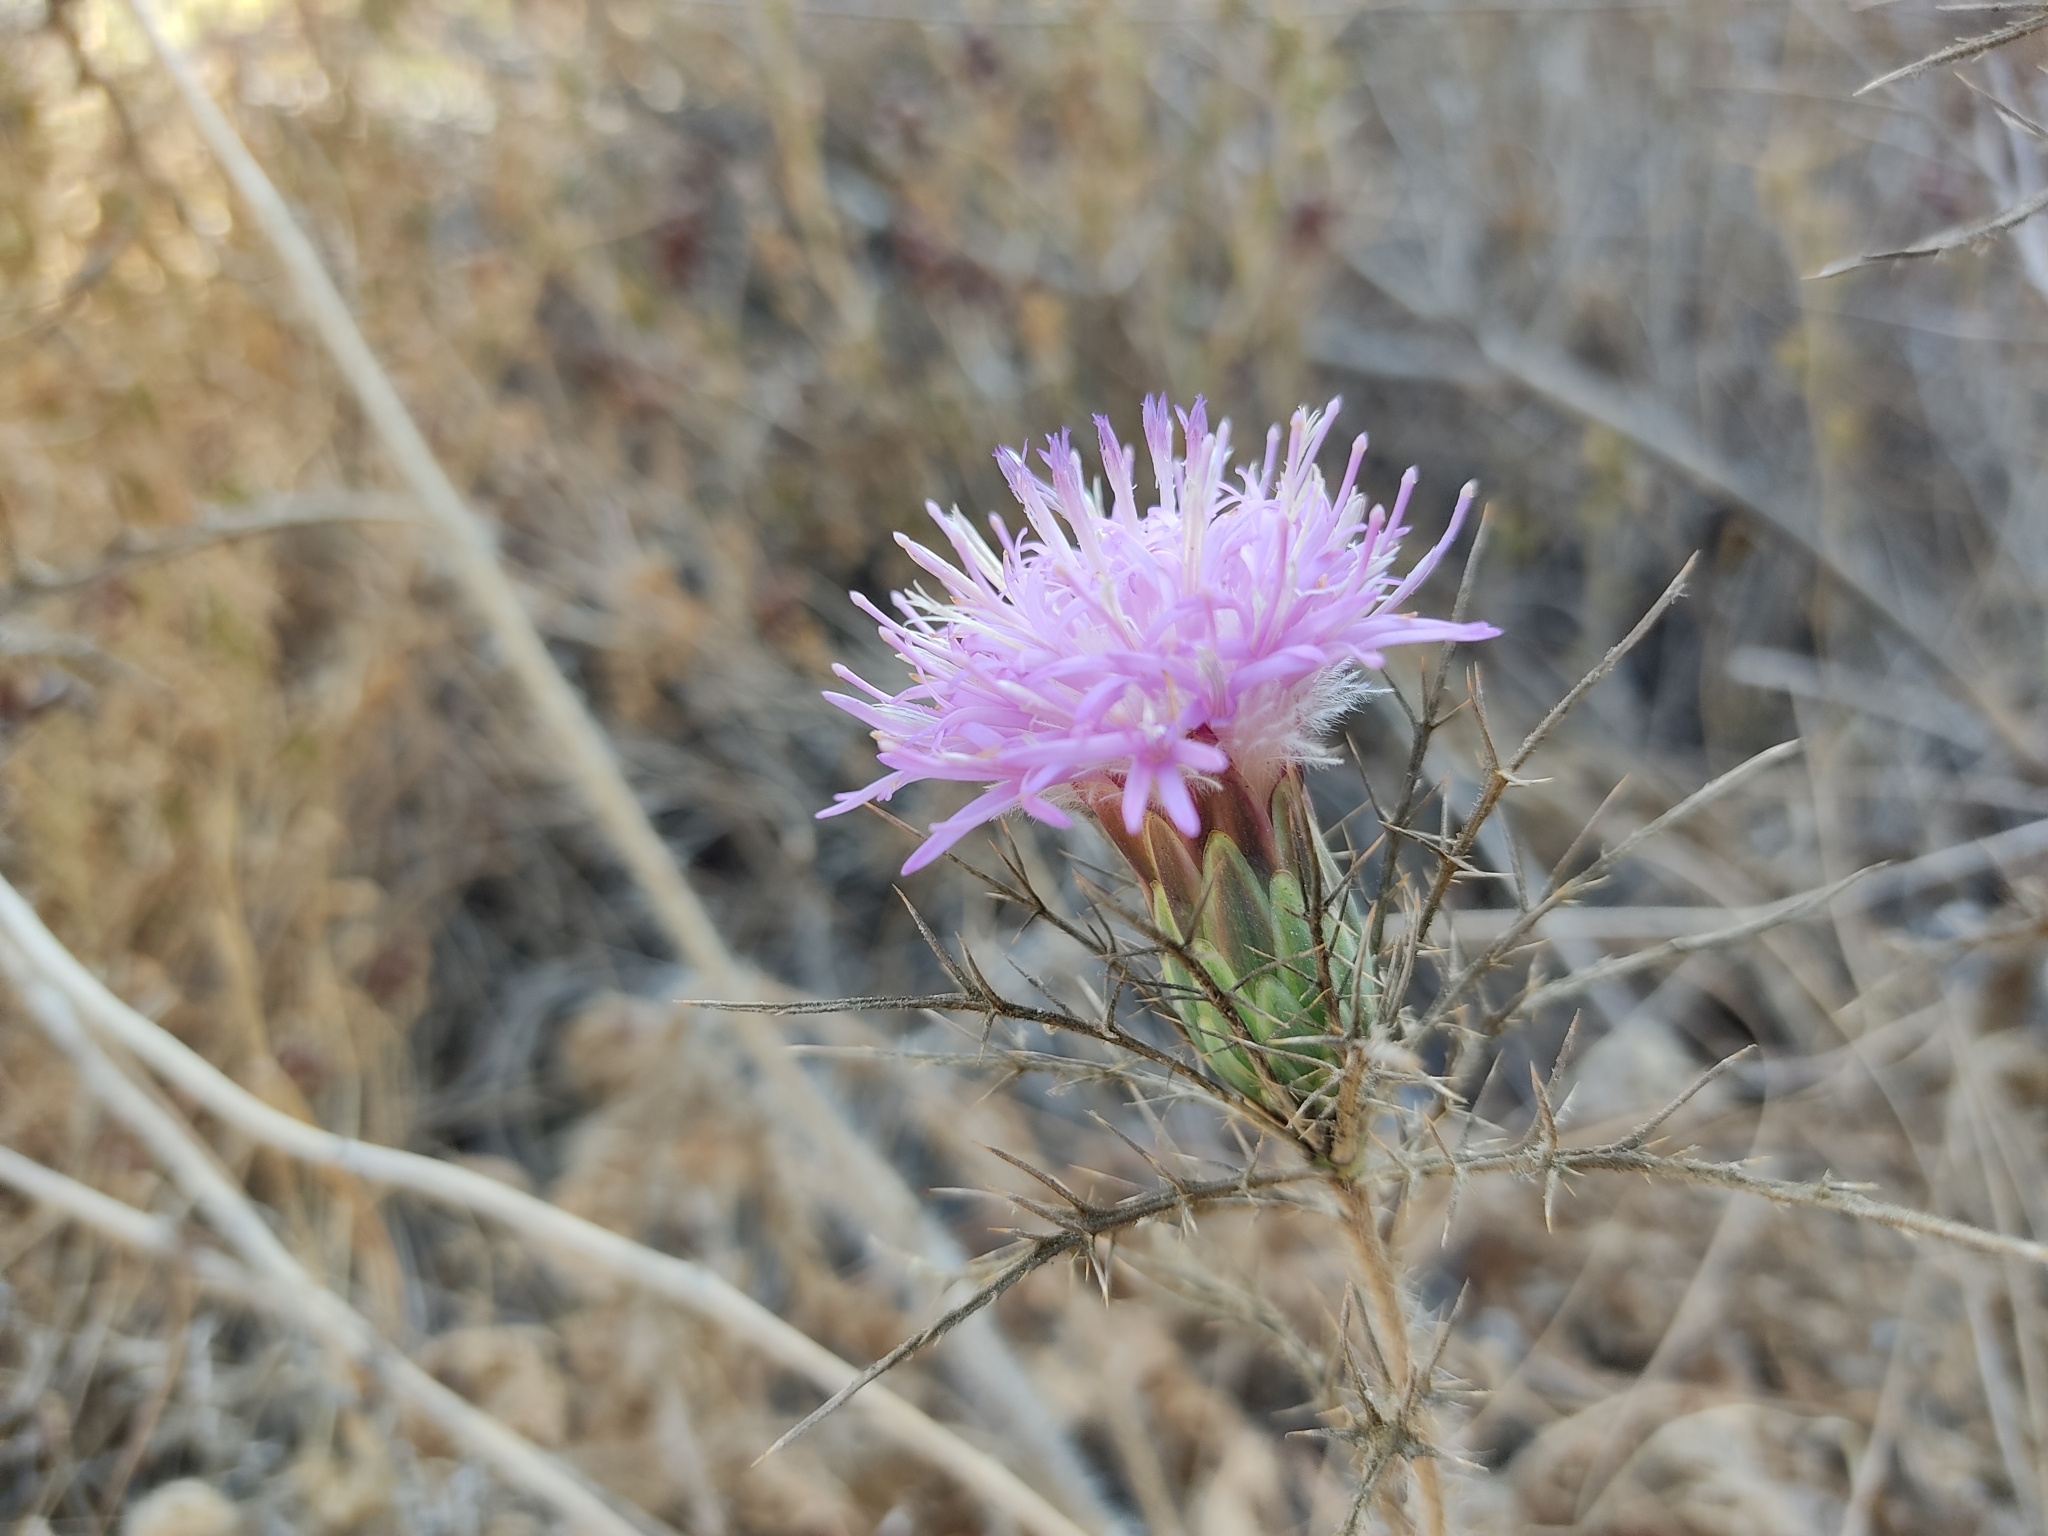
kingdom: Plantae
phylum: Tracheophyta
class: Magnoliopsida
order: Asterales
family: Asteraceae
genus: Chamaeleon
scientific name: Chamaeleon comosus
